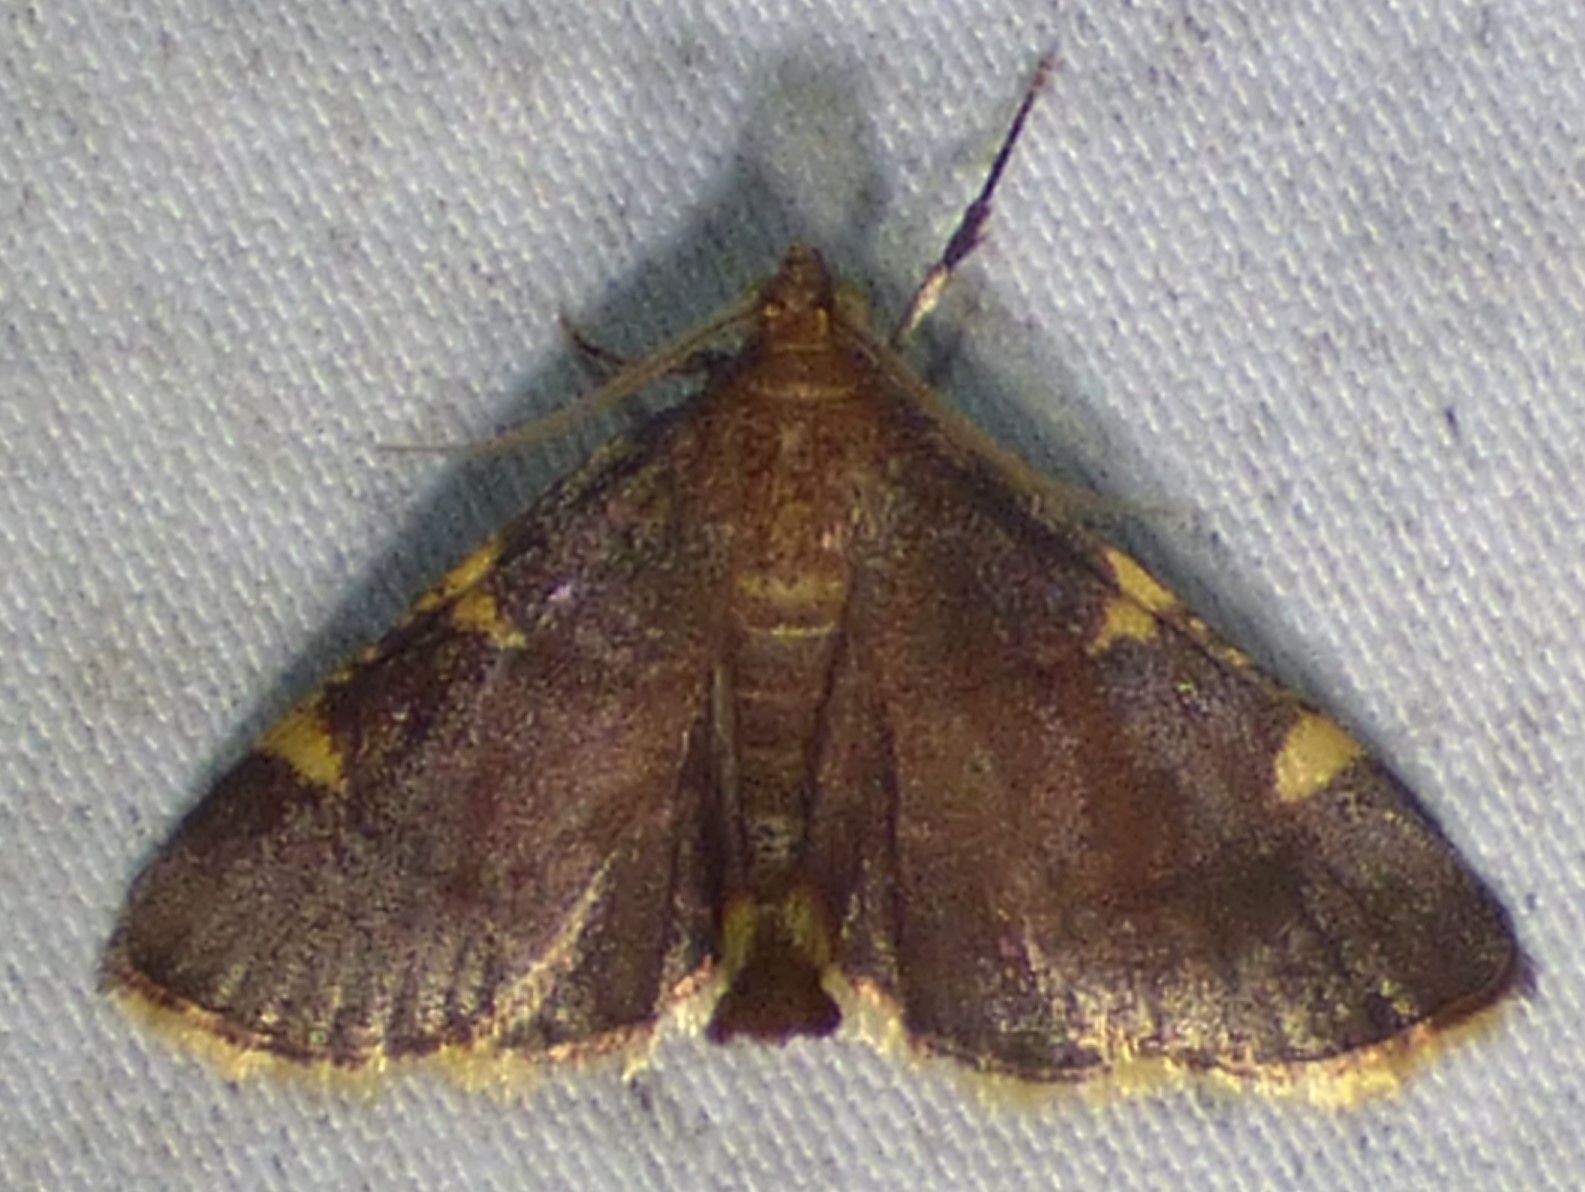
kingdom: Animalia
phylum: Arthropoda
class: Insecta
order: Lepidoptera
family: Pyralidae
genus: Hypsopygia
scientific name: Hypsopygia olinalis
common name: Yellow-fringed dolichomia moth
